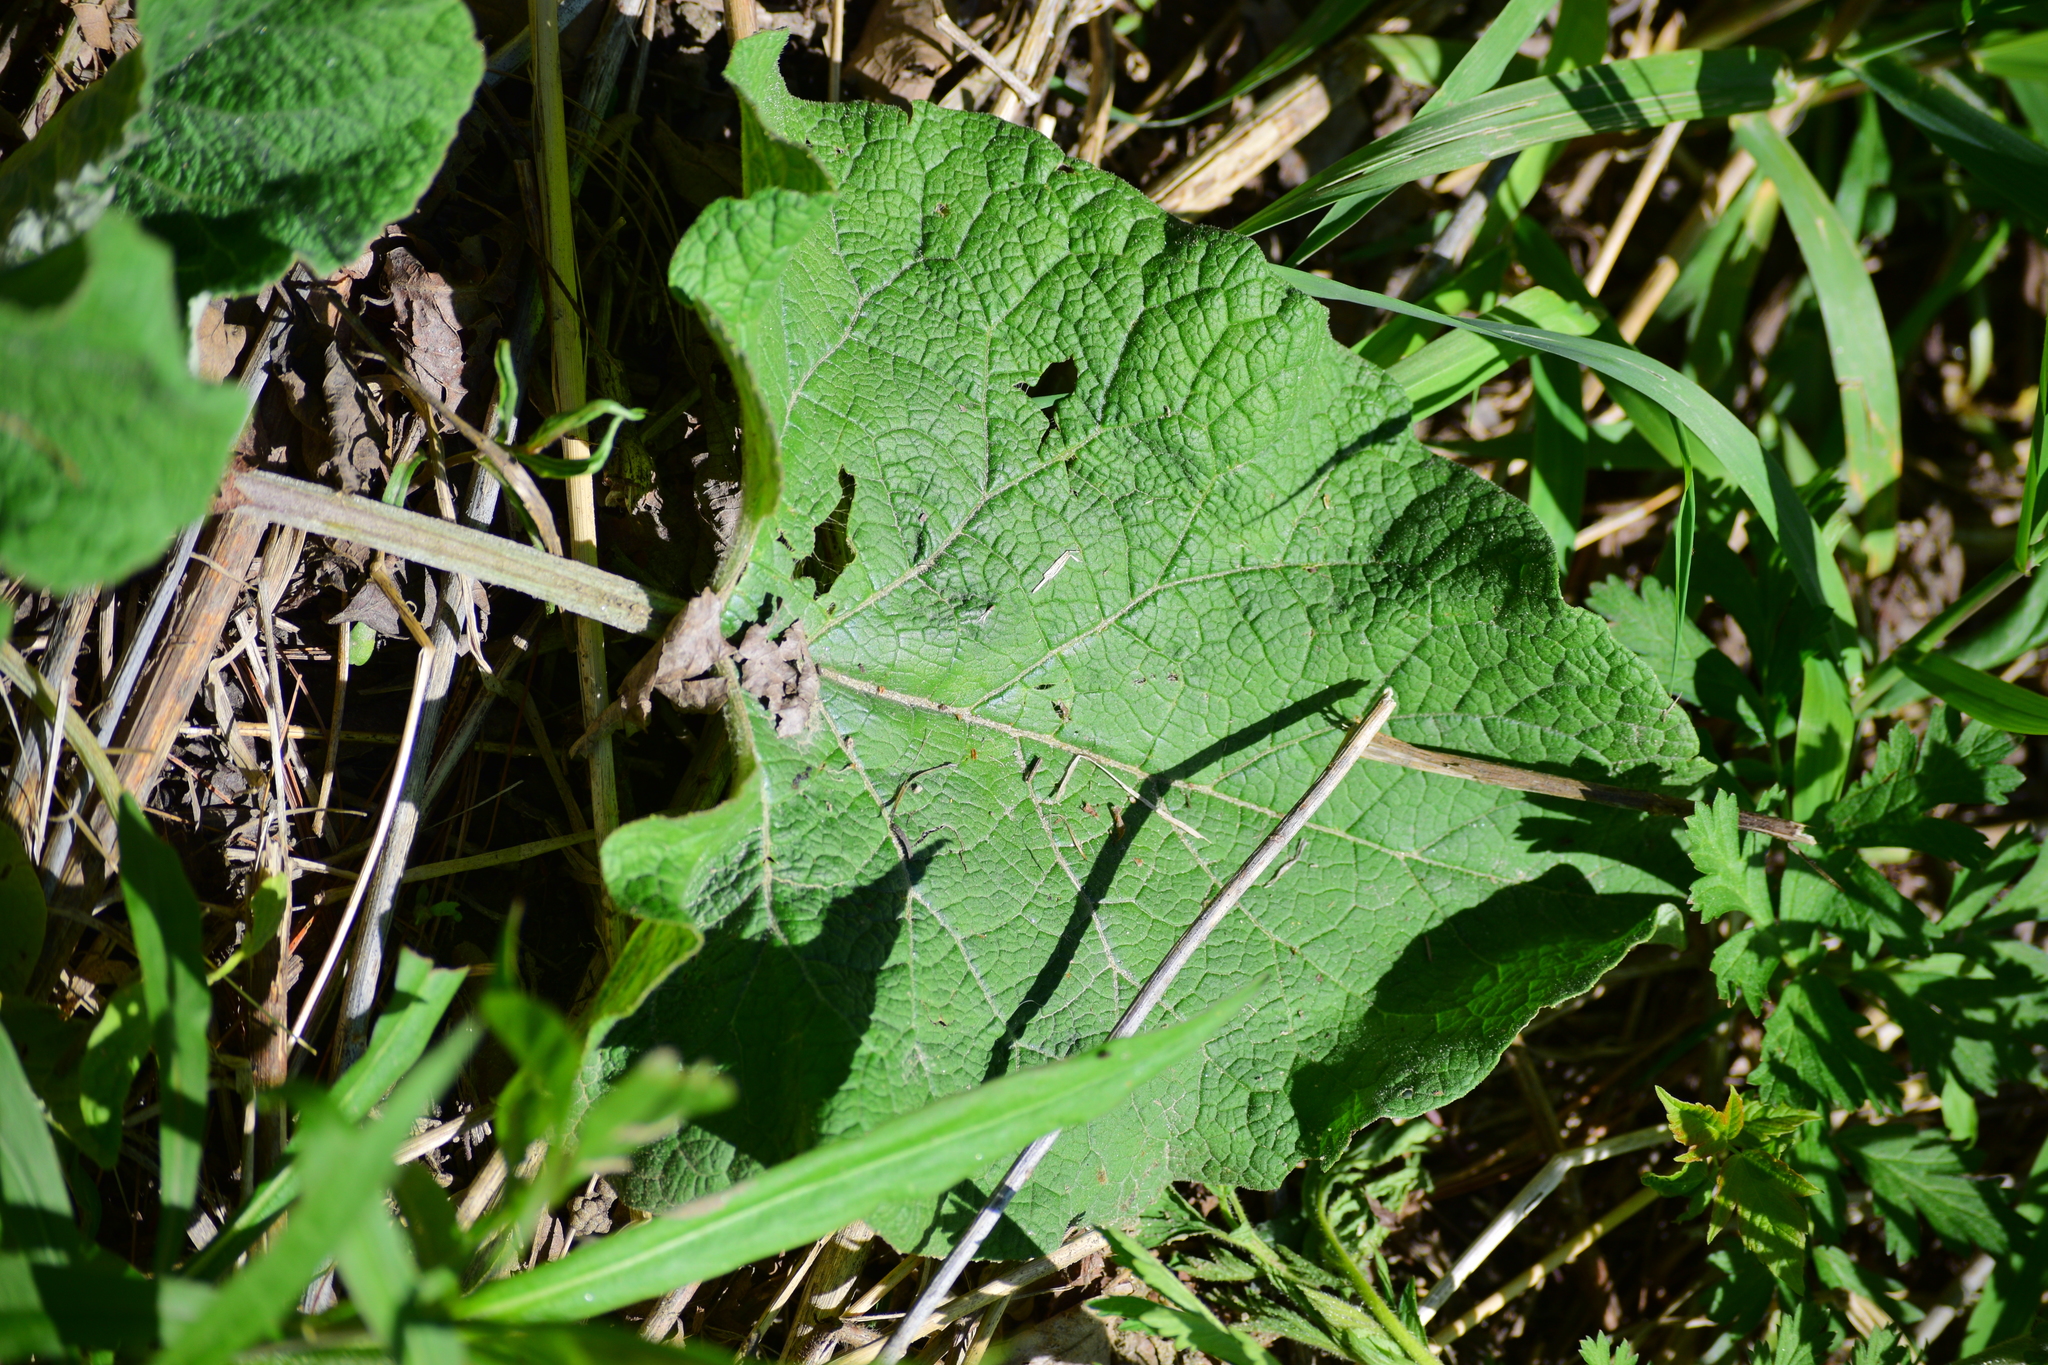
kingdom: Plantae
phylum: Tracheophyta
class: Magnoliopsida
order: Asterales
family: Asteraceae
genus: Arctium
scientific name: Arctium
